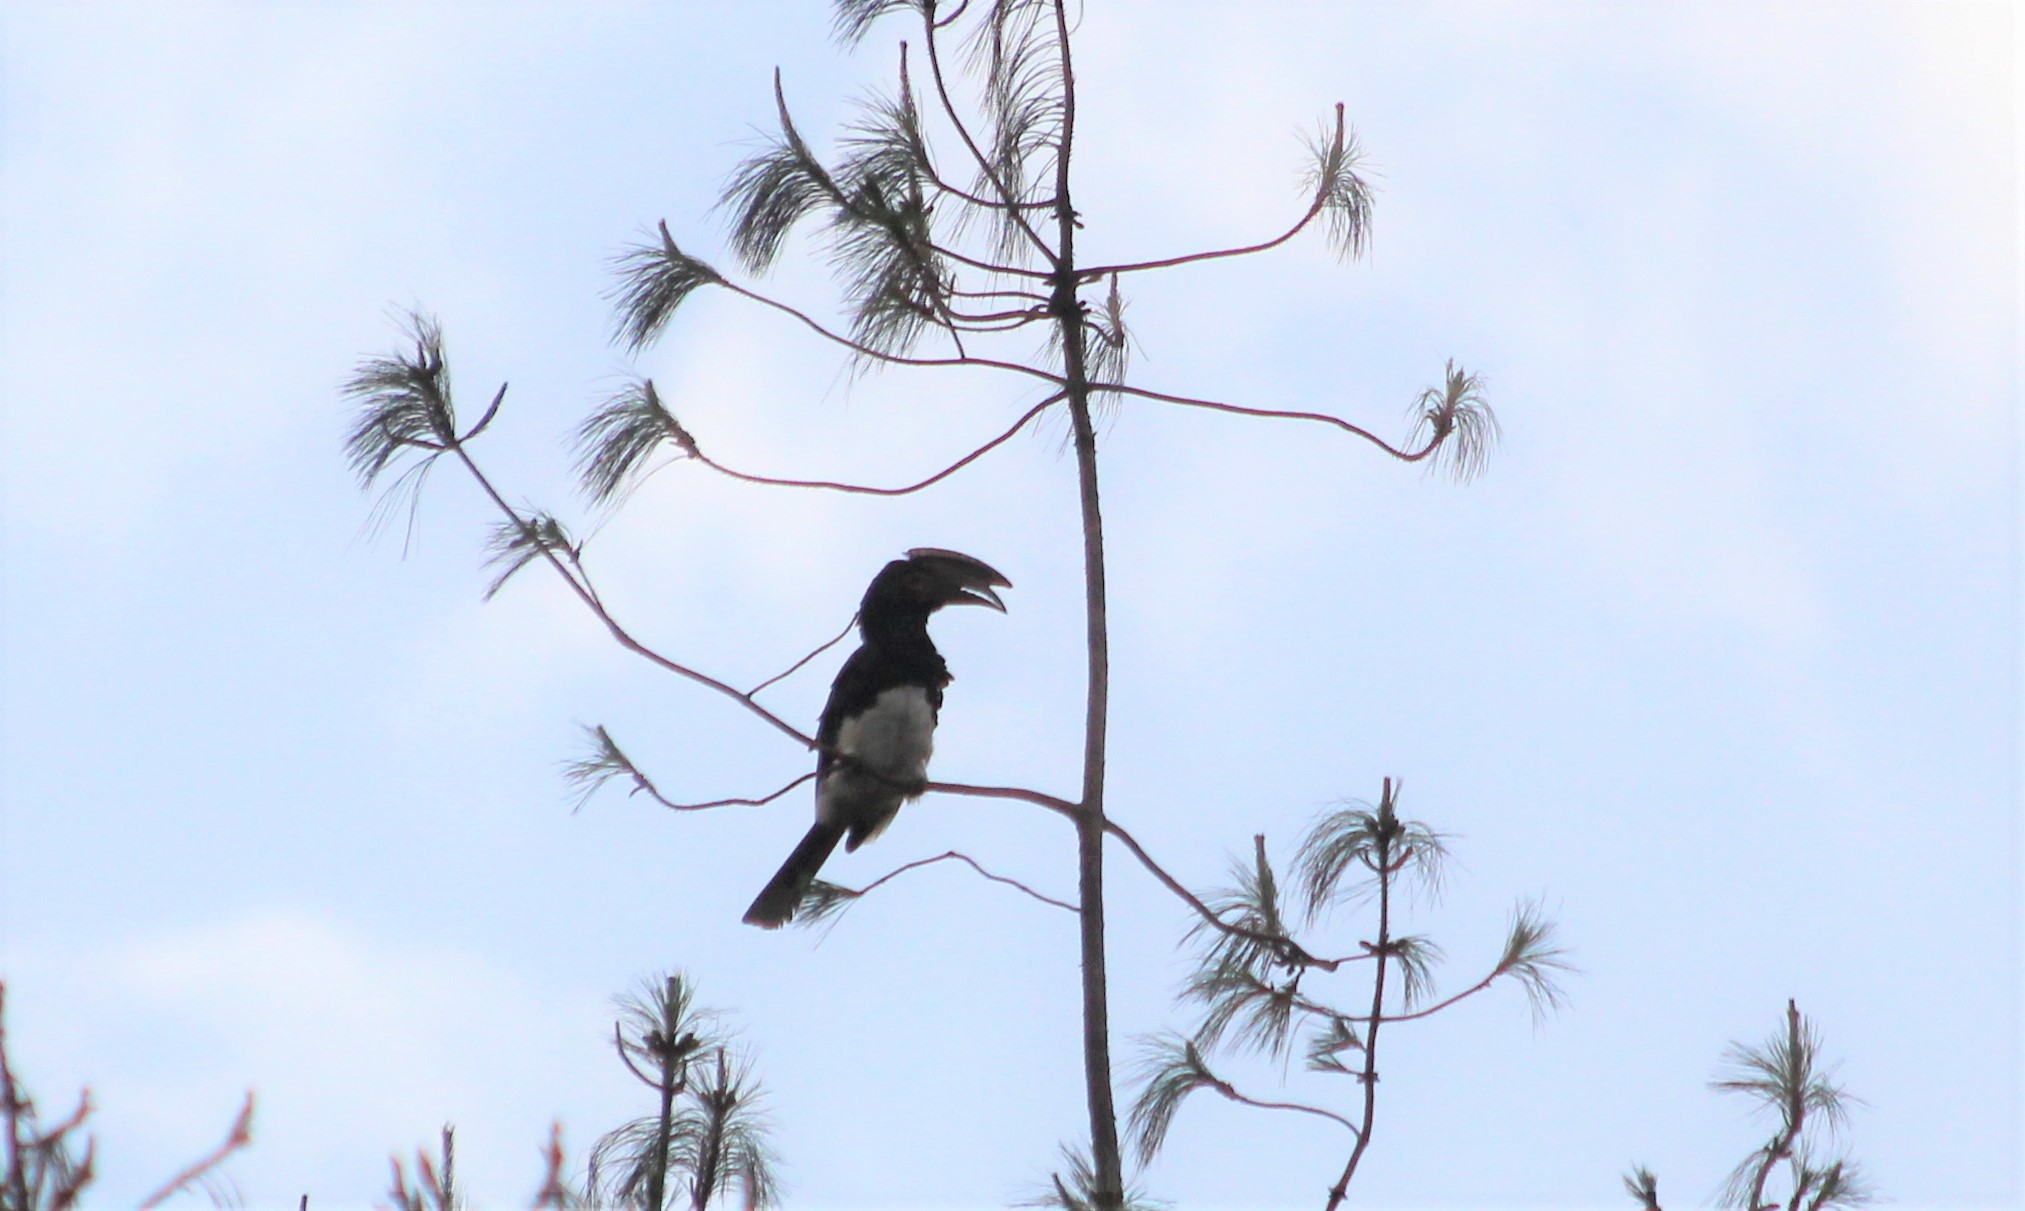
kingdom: Animalia
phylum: Chordata
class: Aves
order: Bucerotiformes
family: Bucerotidae
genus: Bycanistes
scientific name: Bycanistes bucinator
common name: Trumpeter hornbill
